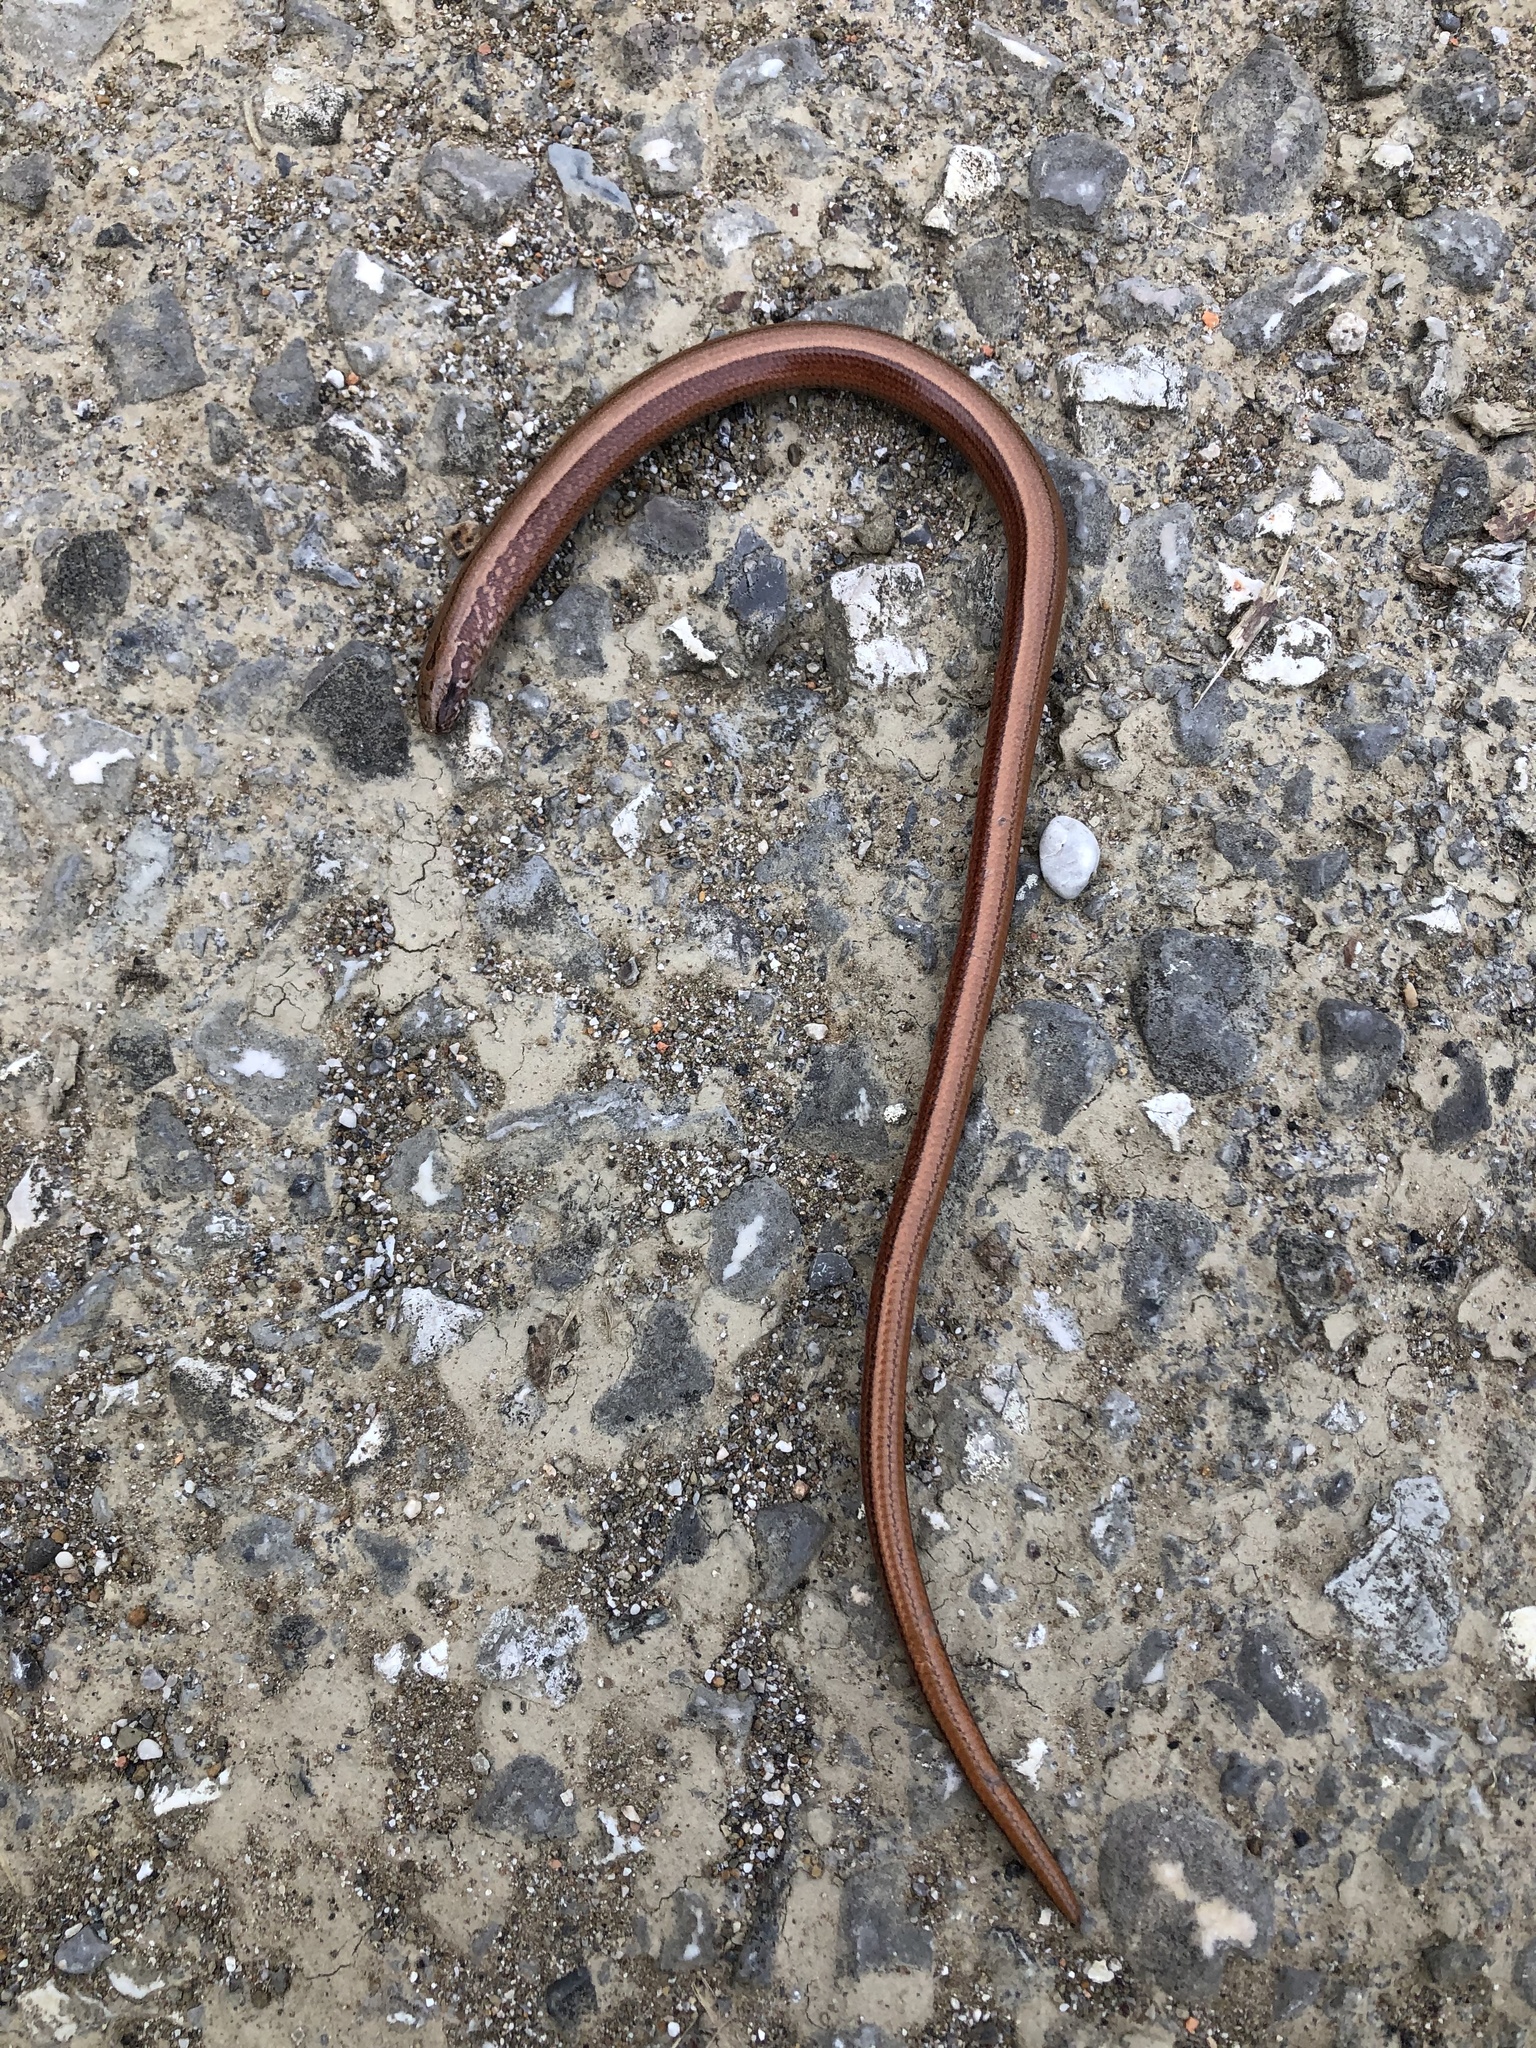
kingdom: Animalia
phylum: Chordata
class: Squamata
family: Anguidae
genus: Anguis
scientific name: Anguis
